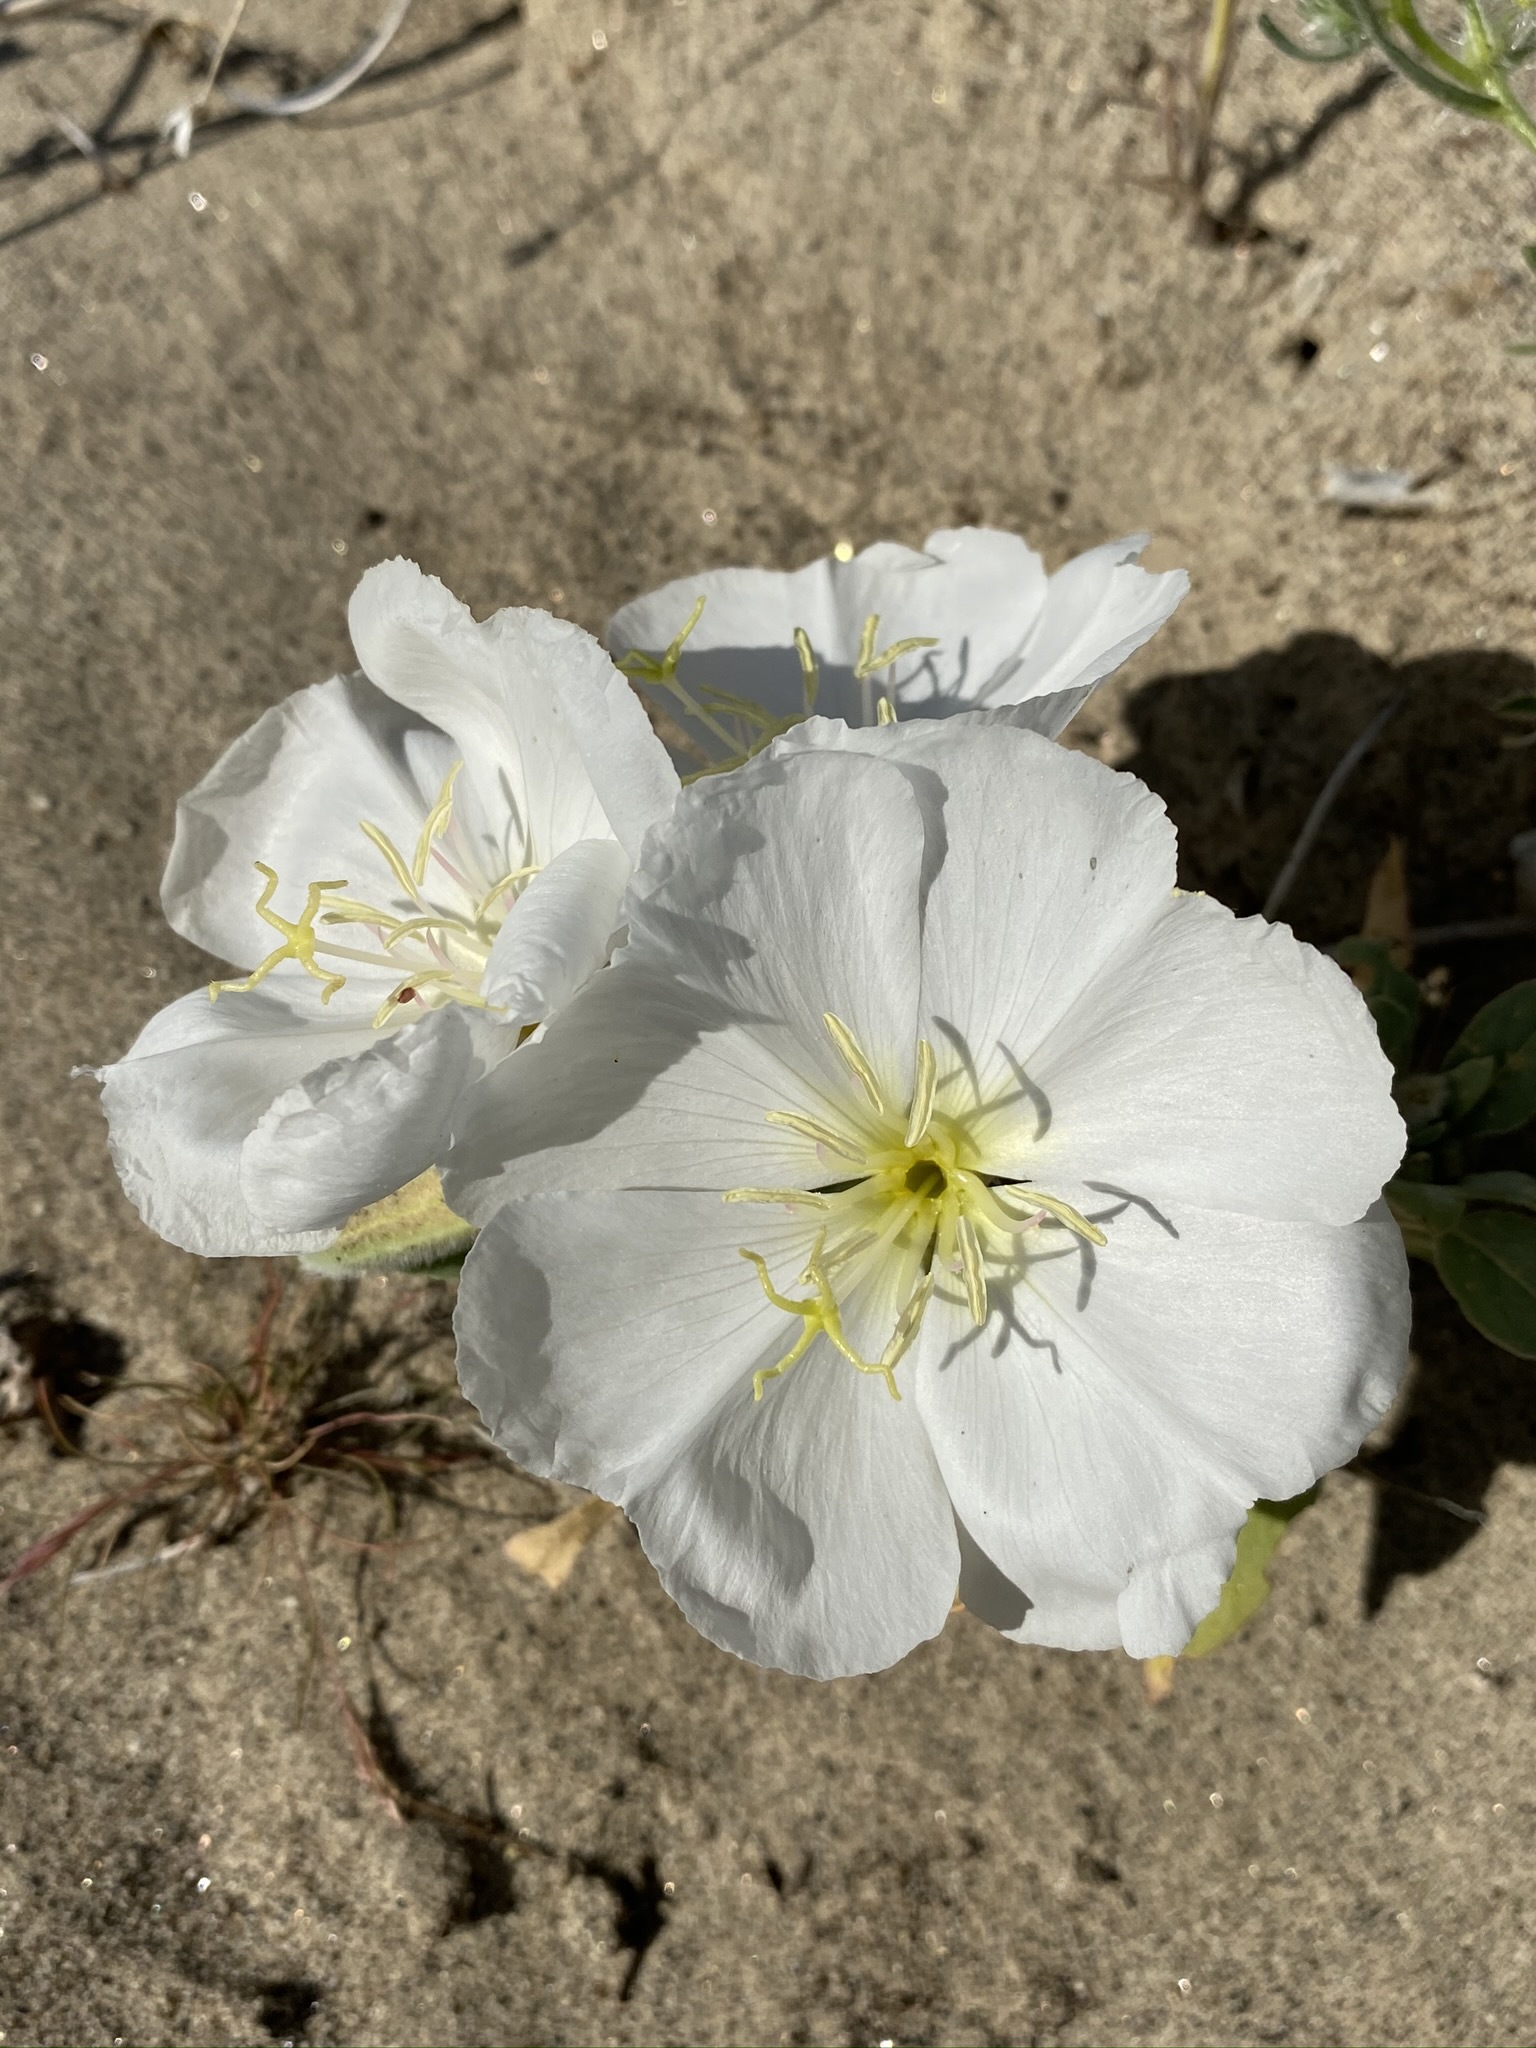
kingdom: Plantae
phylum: Tracheophyta
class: Magnoliopsida
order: Myrtales
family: Onagraceae
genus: Oenothera
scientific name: Oenothera deltoides
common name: Basket evening-primrose
